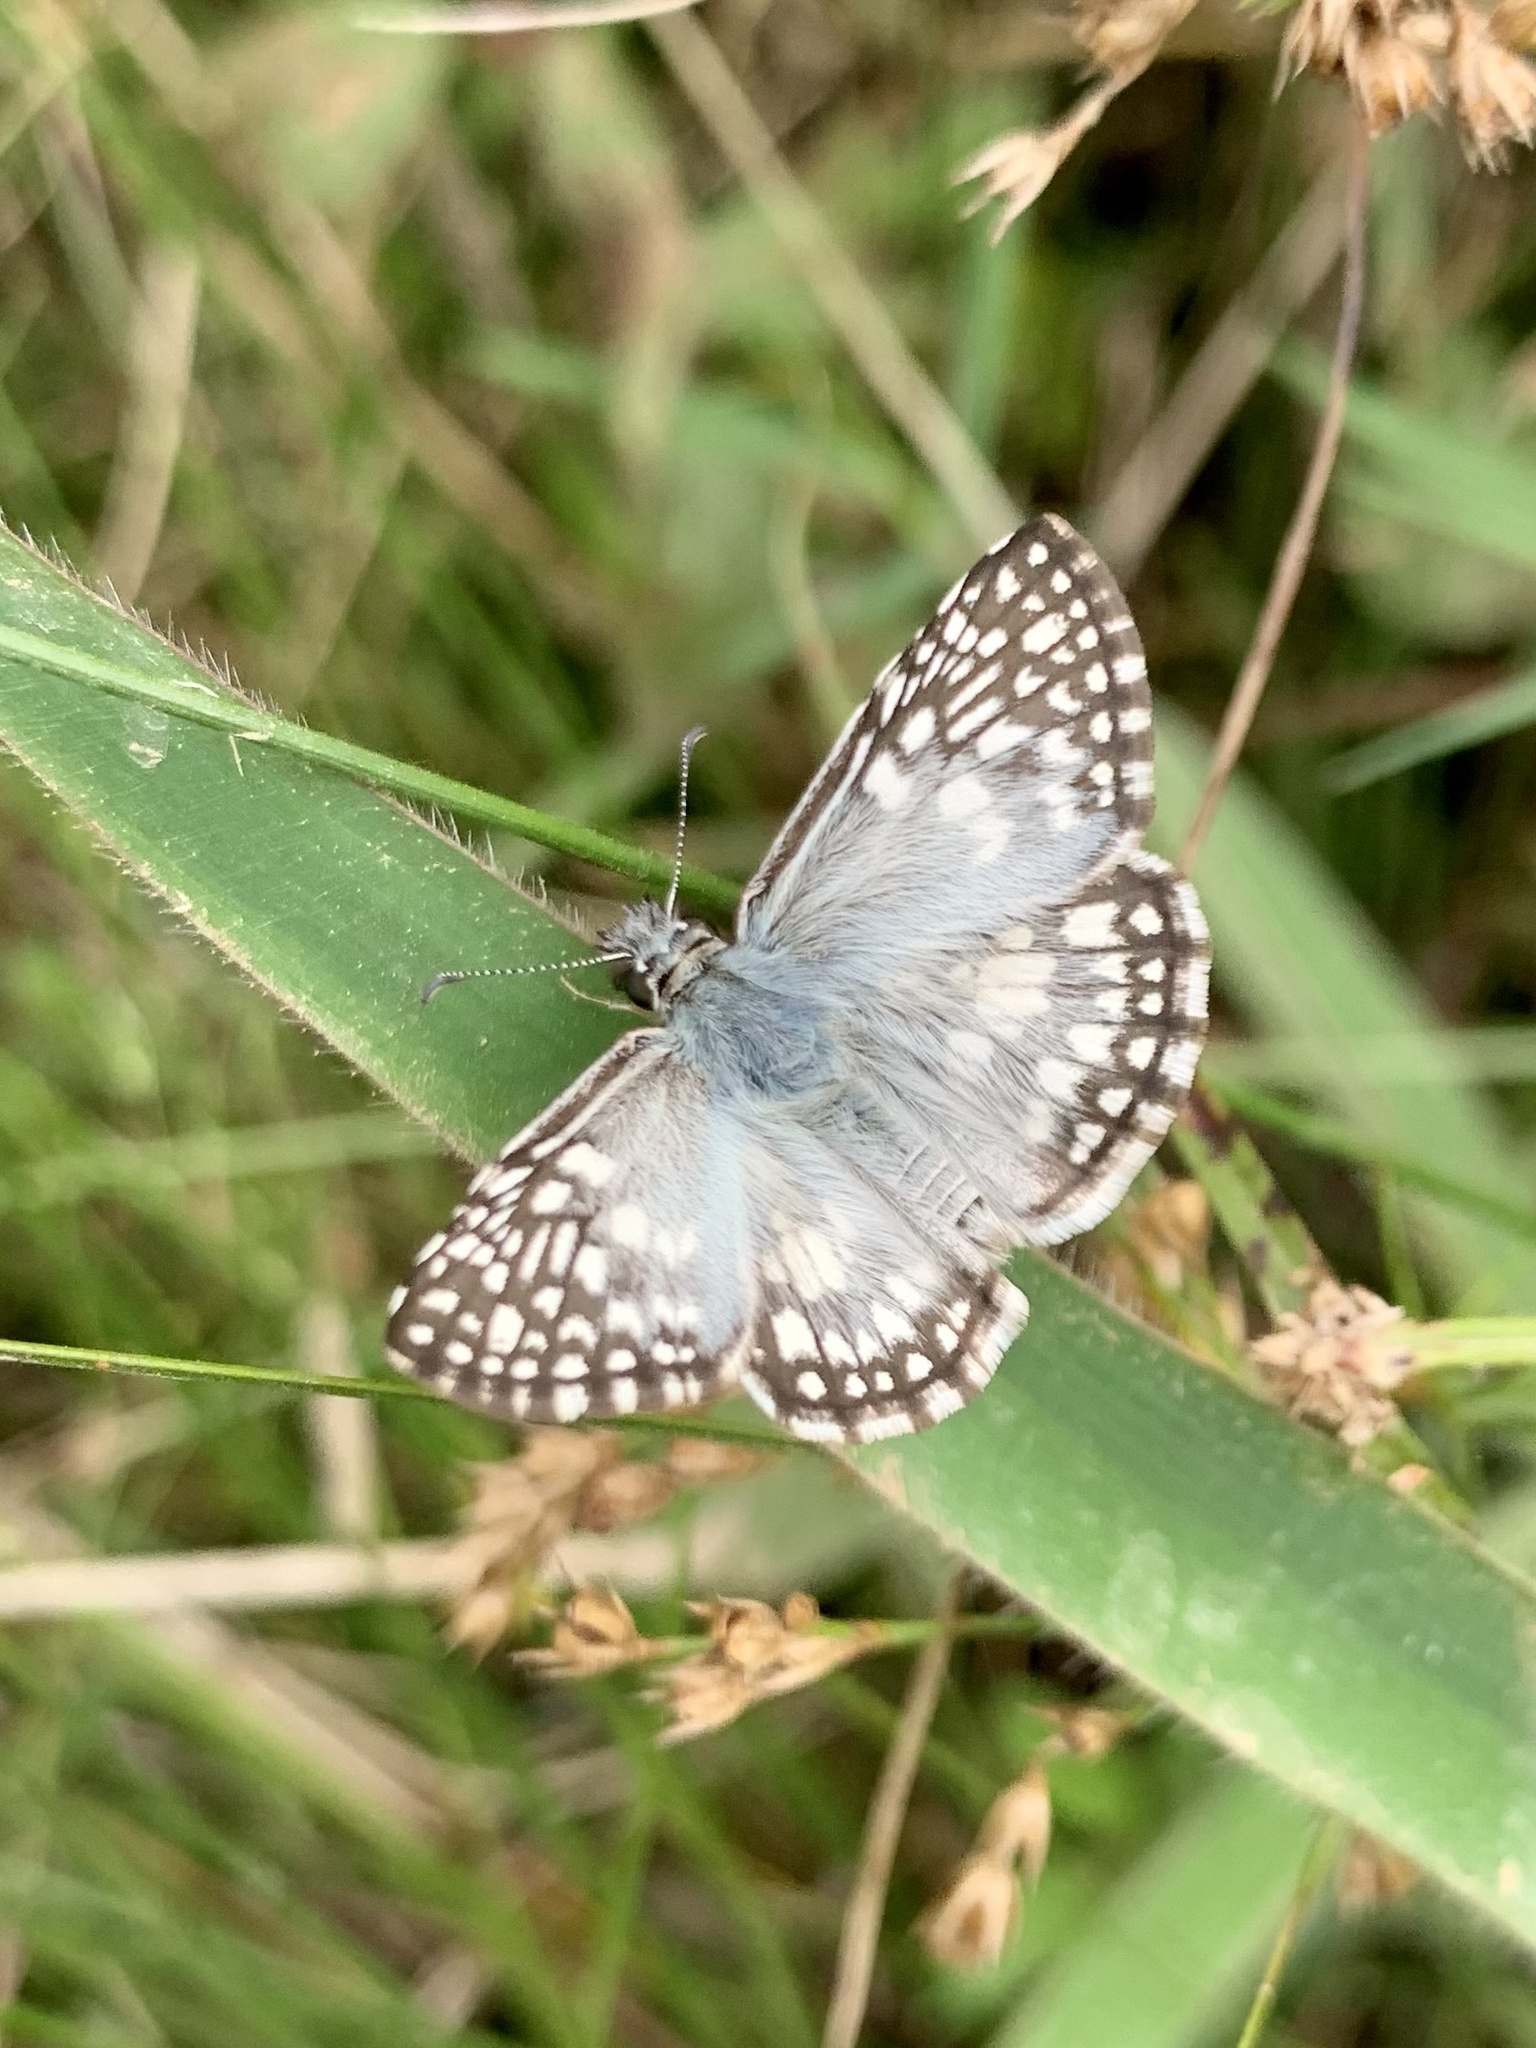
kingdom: Animalia
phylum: Arthropoda
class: Insecta
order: Lepidoptera
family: Hesperiidae
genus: Pyrgus
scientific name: Pyrgus oileus
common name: Tropical checkered-skipper
